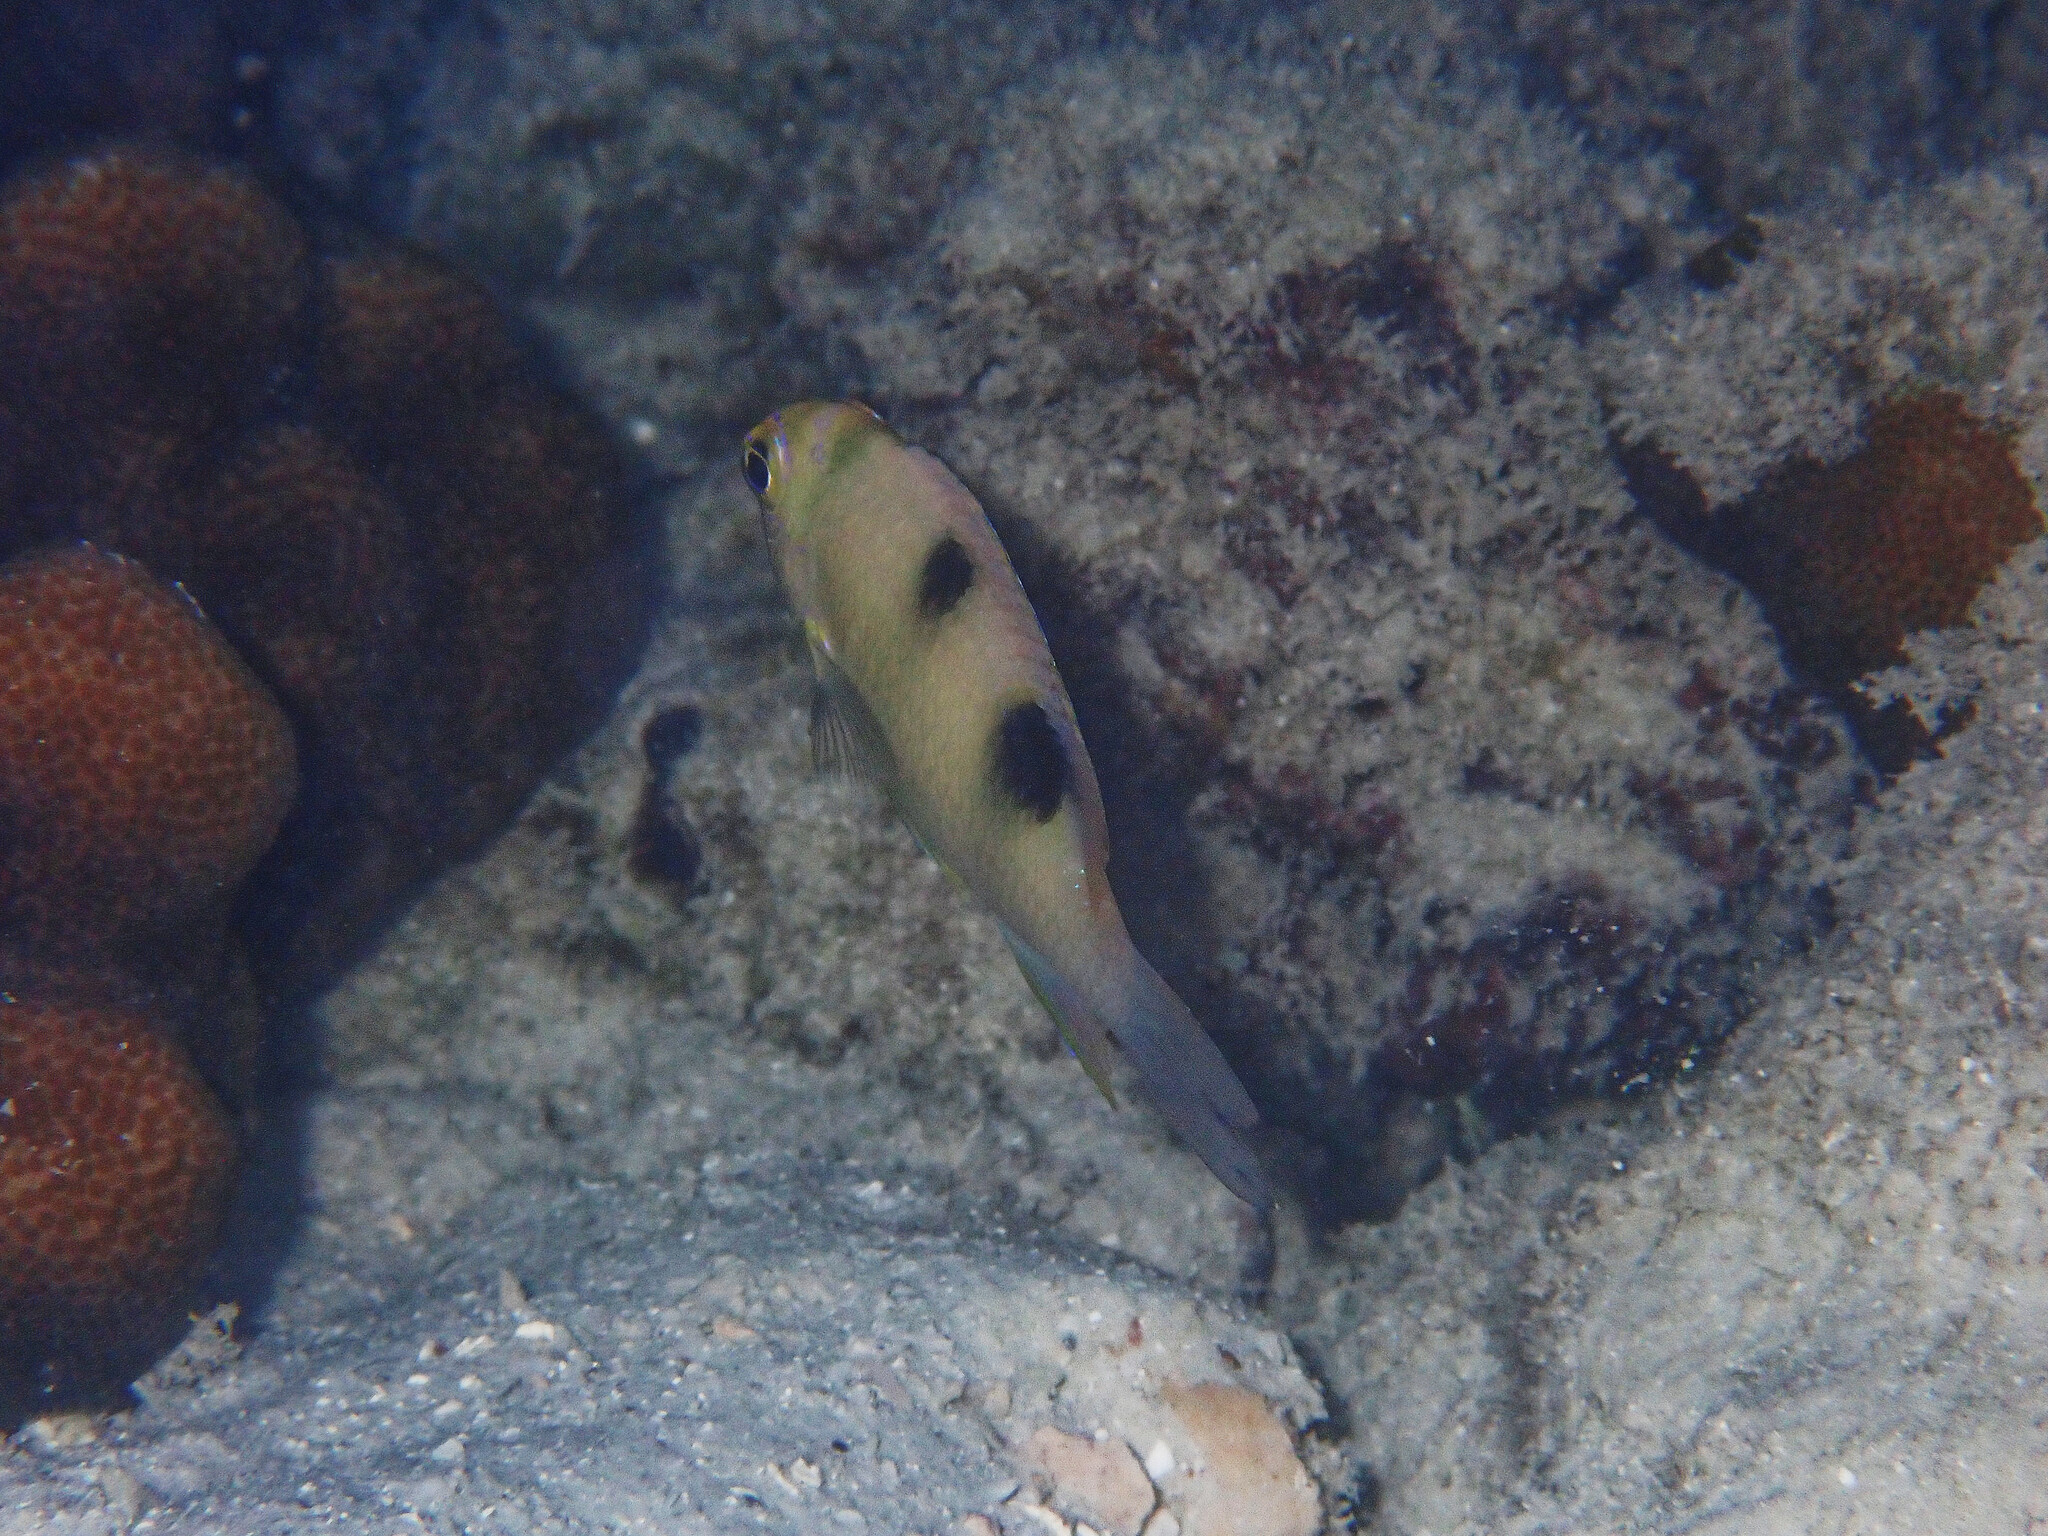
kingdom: Animalia
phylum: Chordata
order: Perciformes
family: Pomacentridae
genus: Dischistodus
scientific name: Dischistodus perspicillatus
